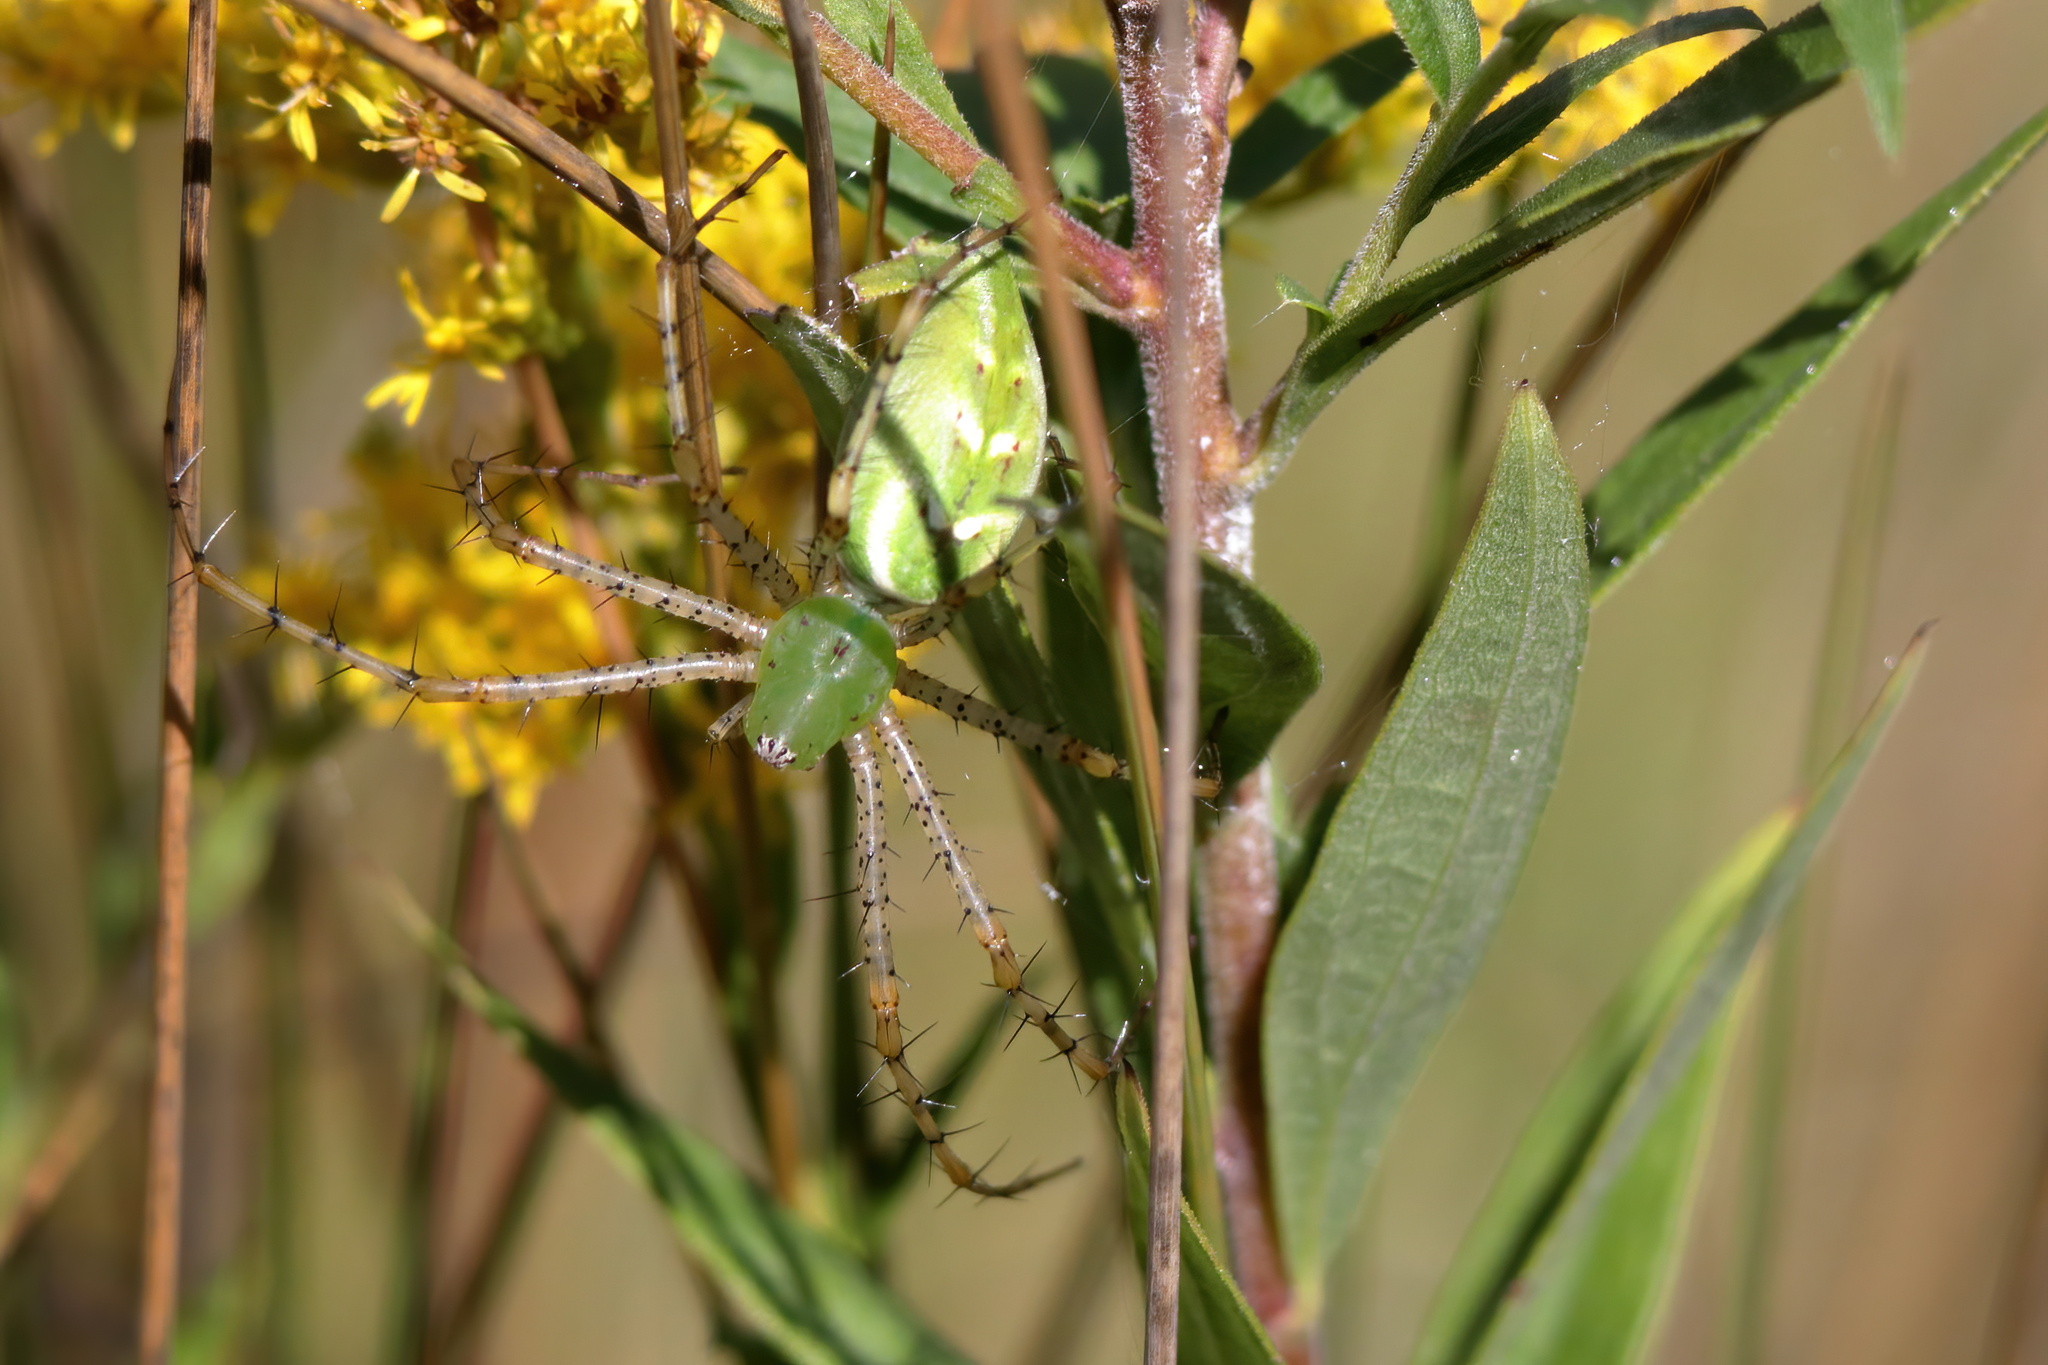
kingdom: Animalia
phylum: Arthropoda
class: Arachnida
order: Araneae
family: Oxyopidae
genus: Peucetia
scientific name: Peucetia viridans
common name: Lynx spiders
